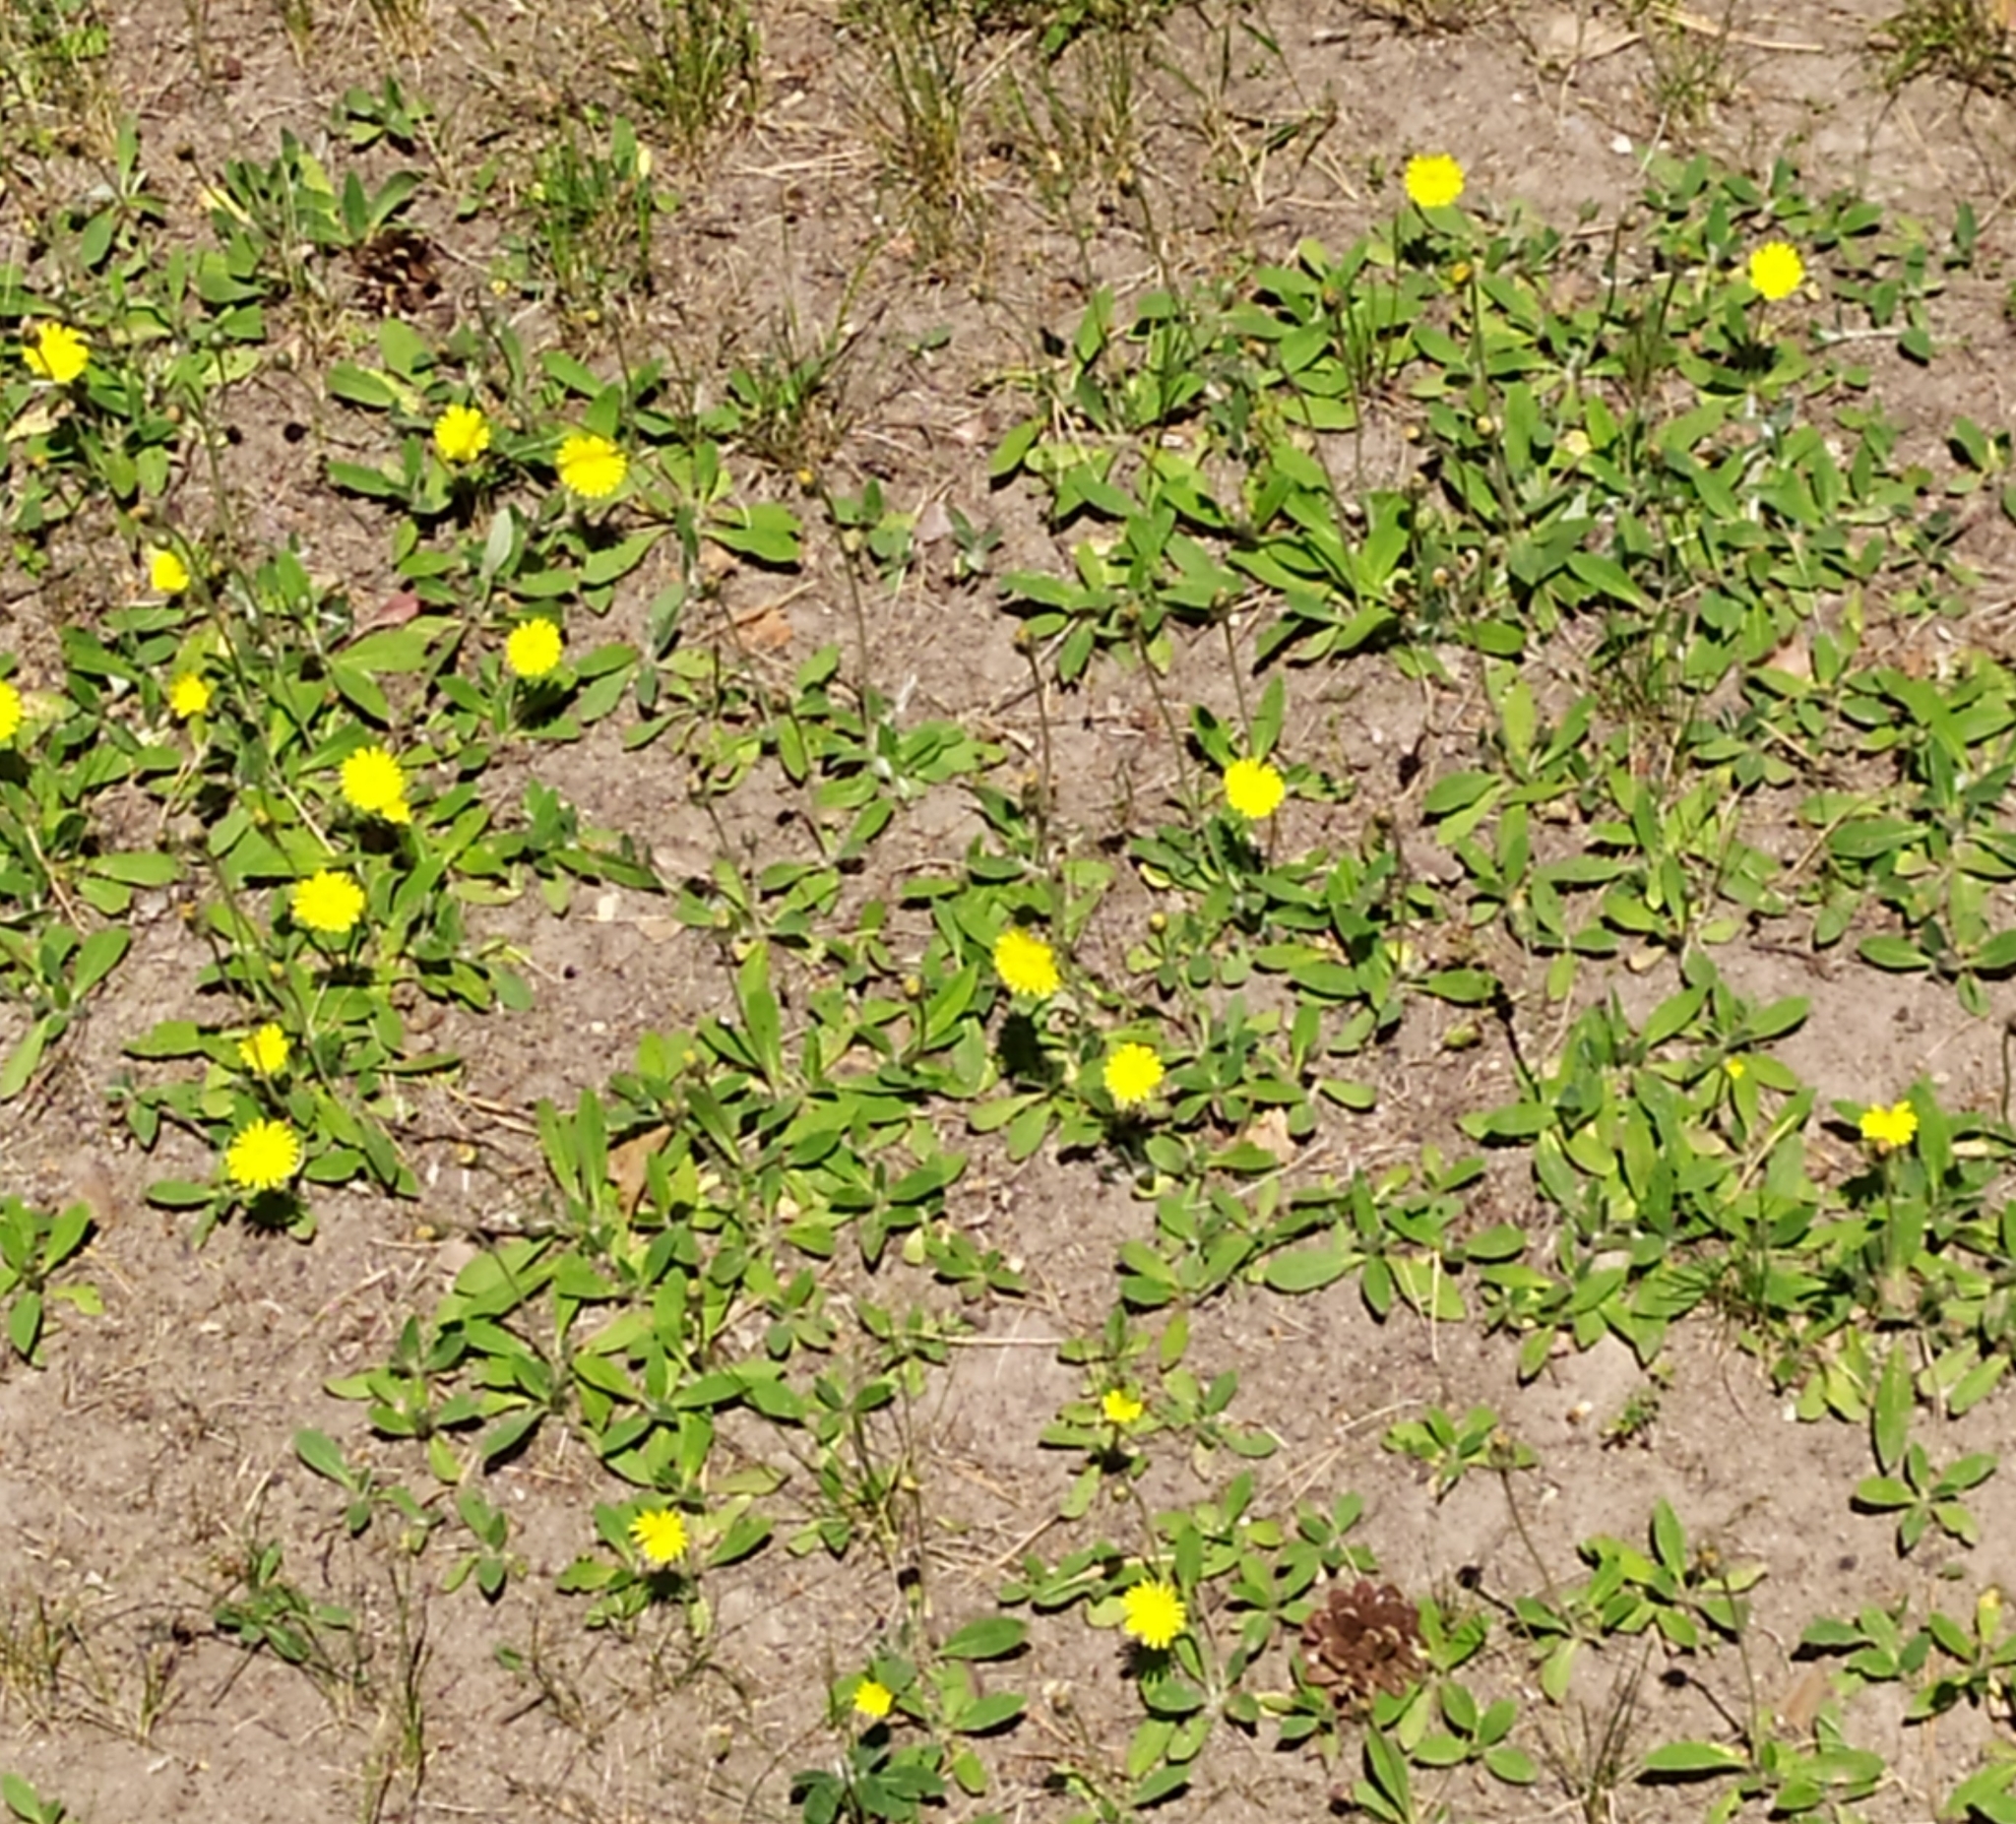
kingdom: Plantae
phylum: Tracheophyta
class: Magnoliopsida
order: Asterales
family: Asteraceae
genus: Pilosella
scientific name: Pilosella officinarum
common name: Mouse-ear hawkweed
